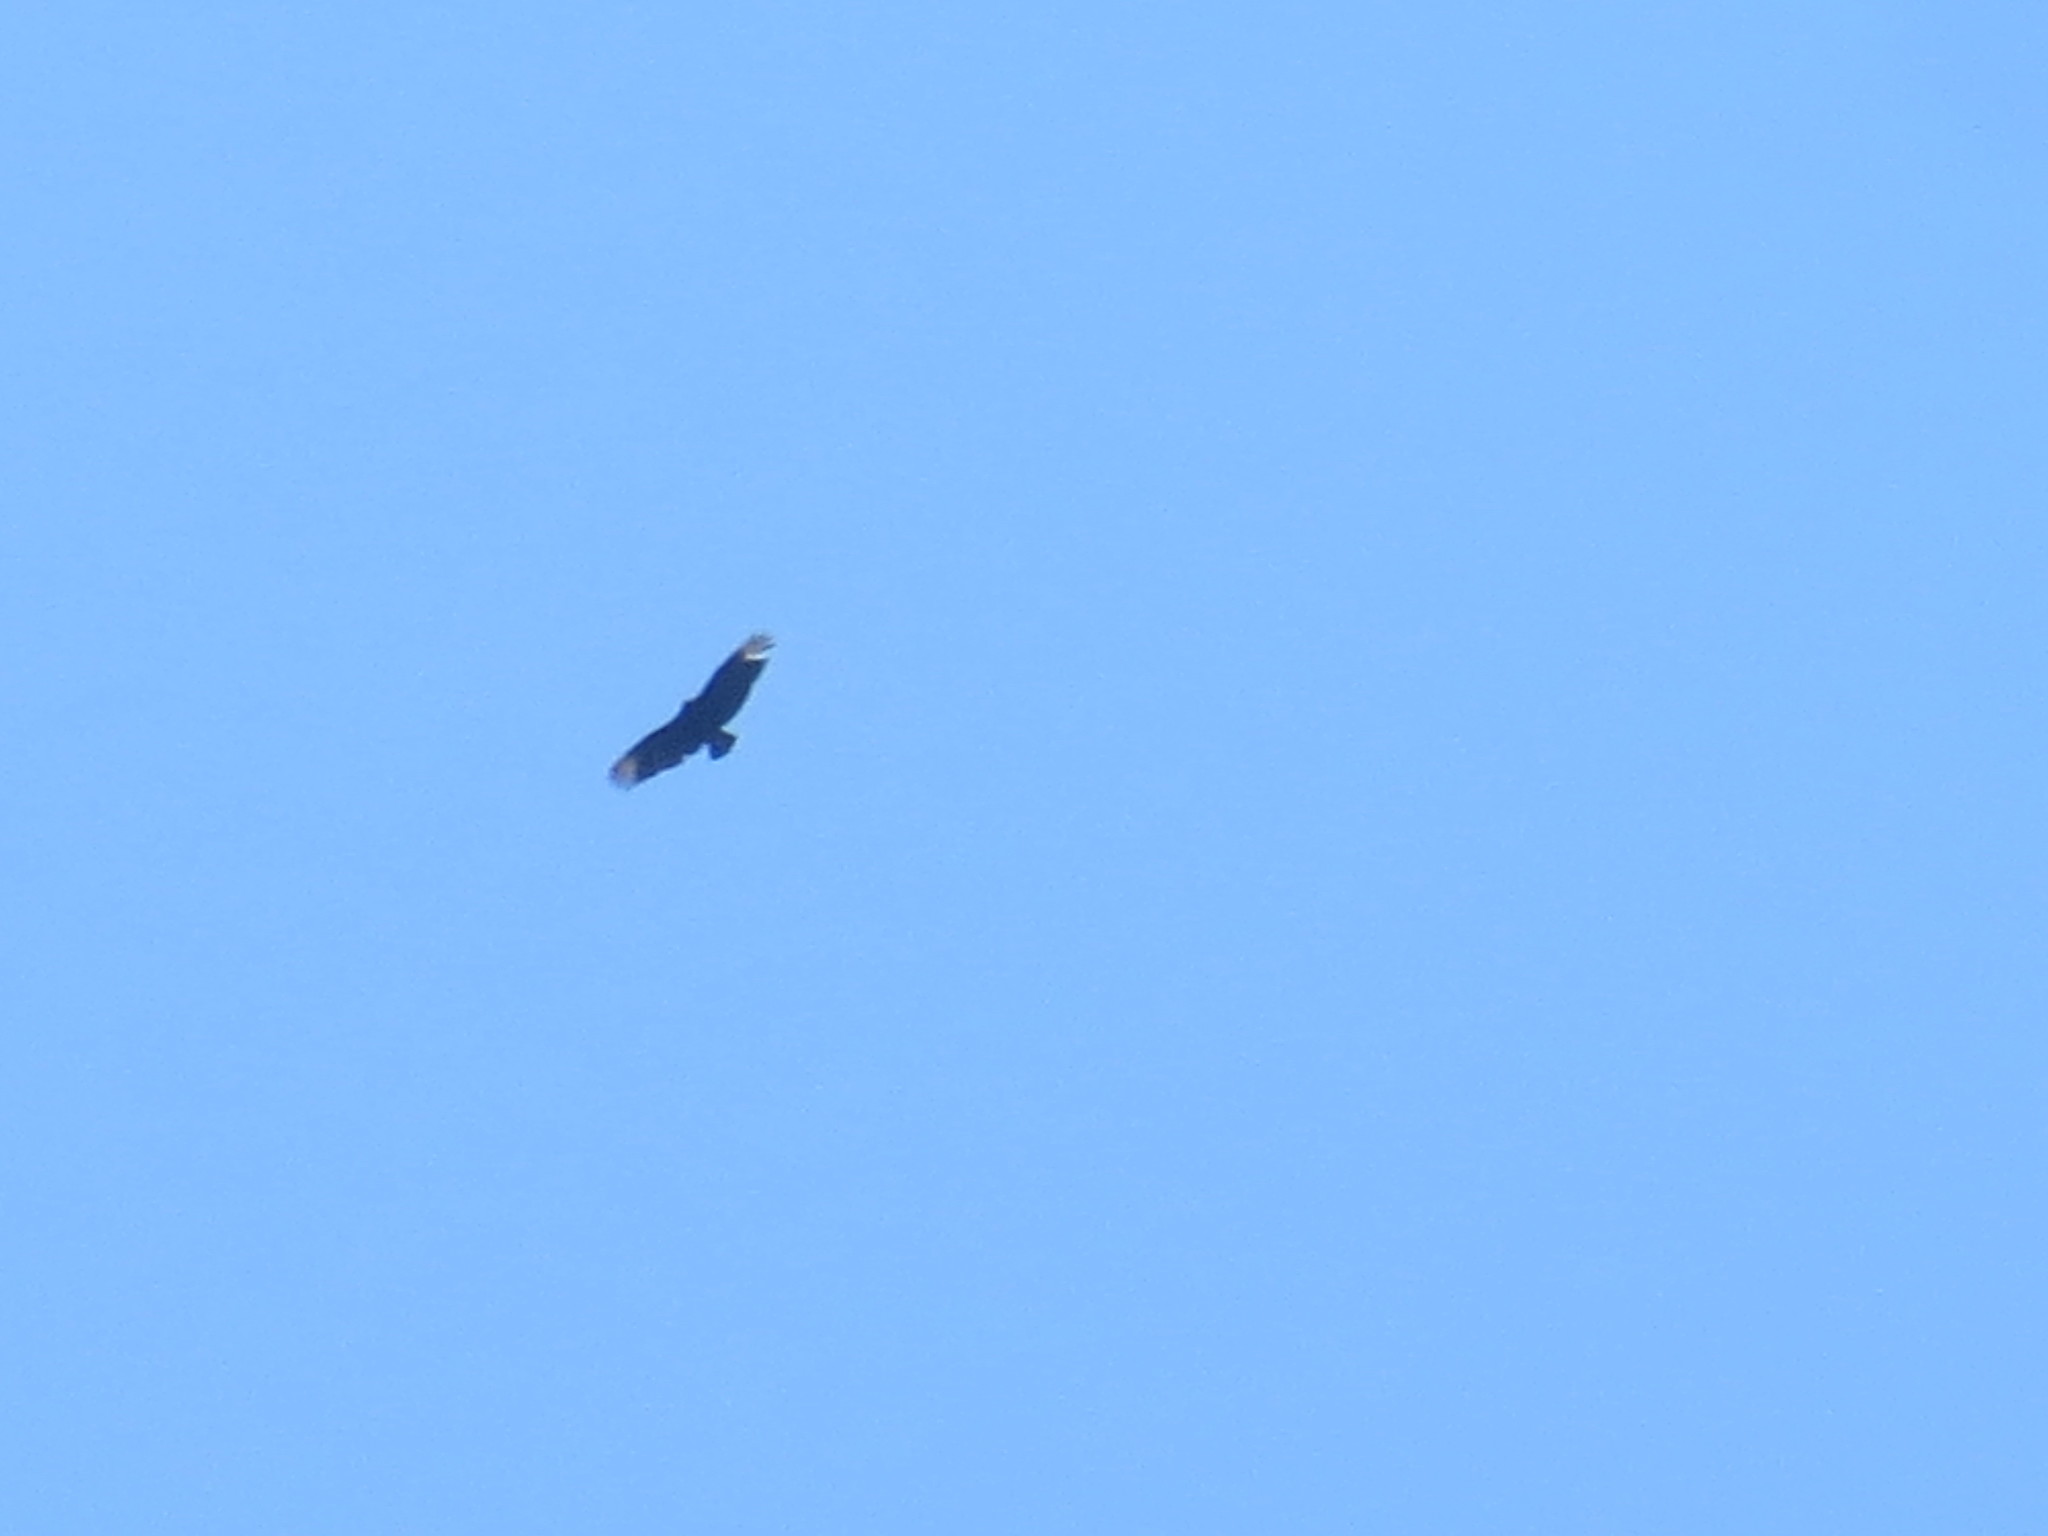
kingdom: Animalia
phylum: Chordata
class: Aves
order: Accipitriformes
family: Cathartidae
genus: Coragyps
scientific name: Coragyps atratus
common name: Black vulture
